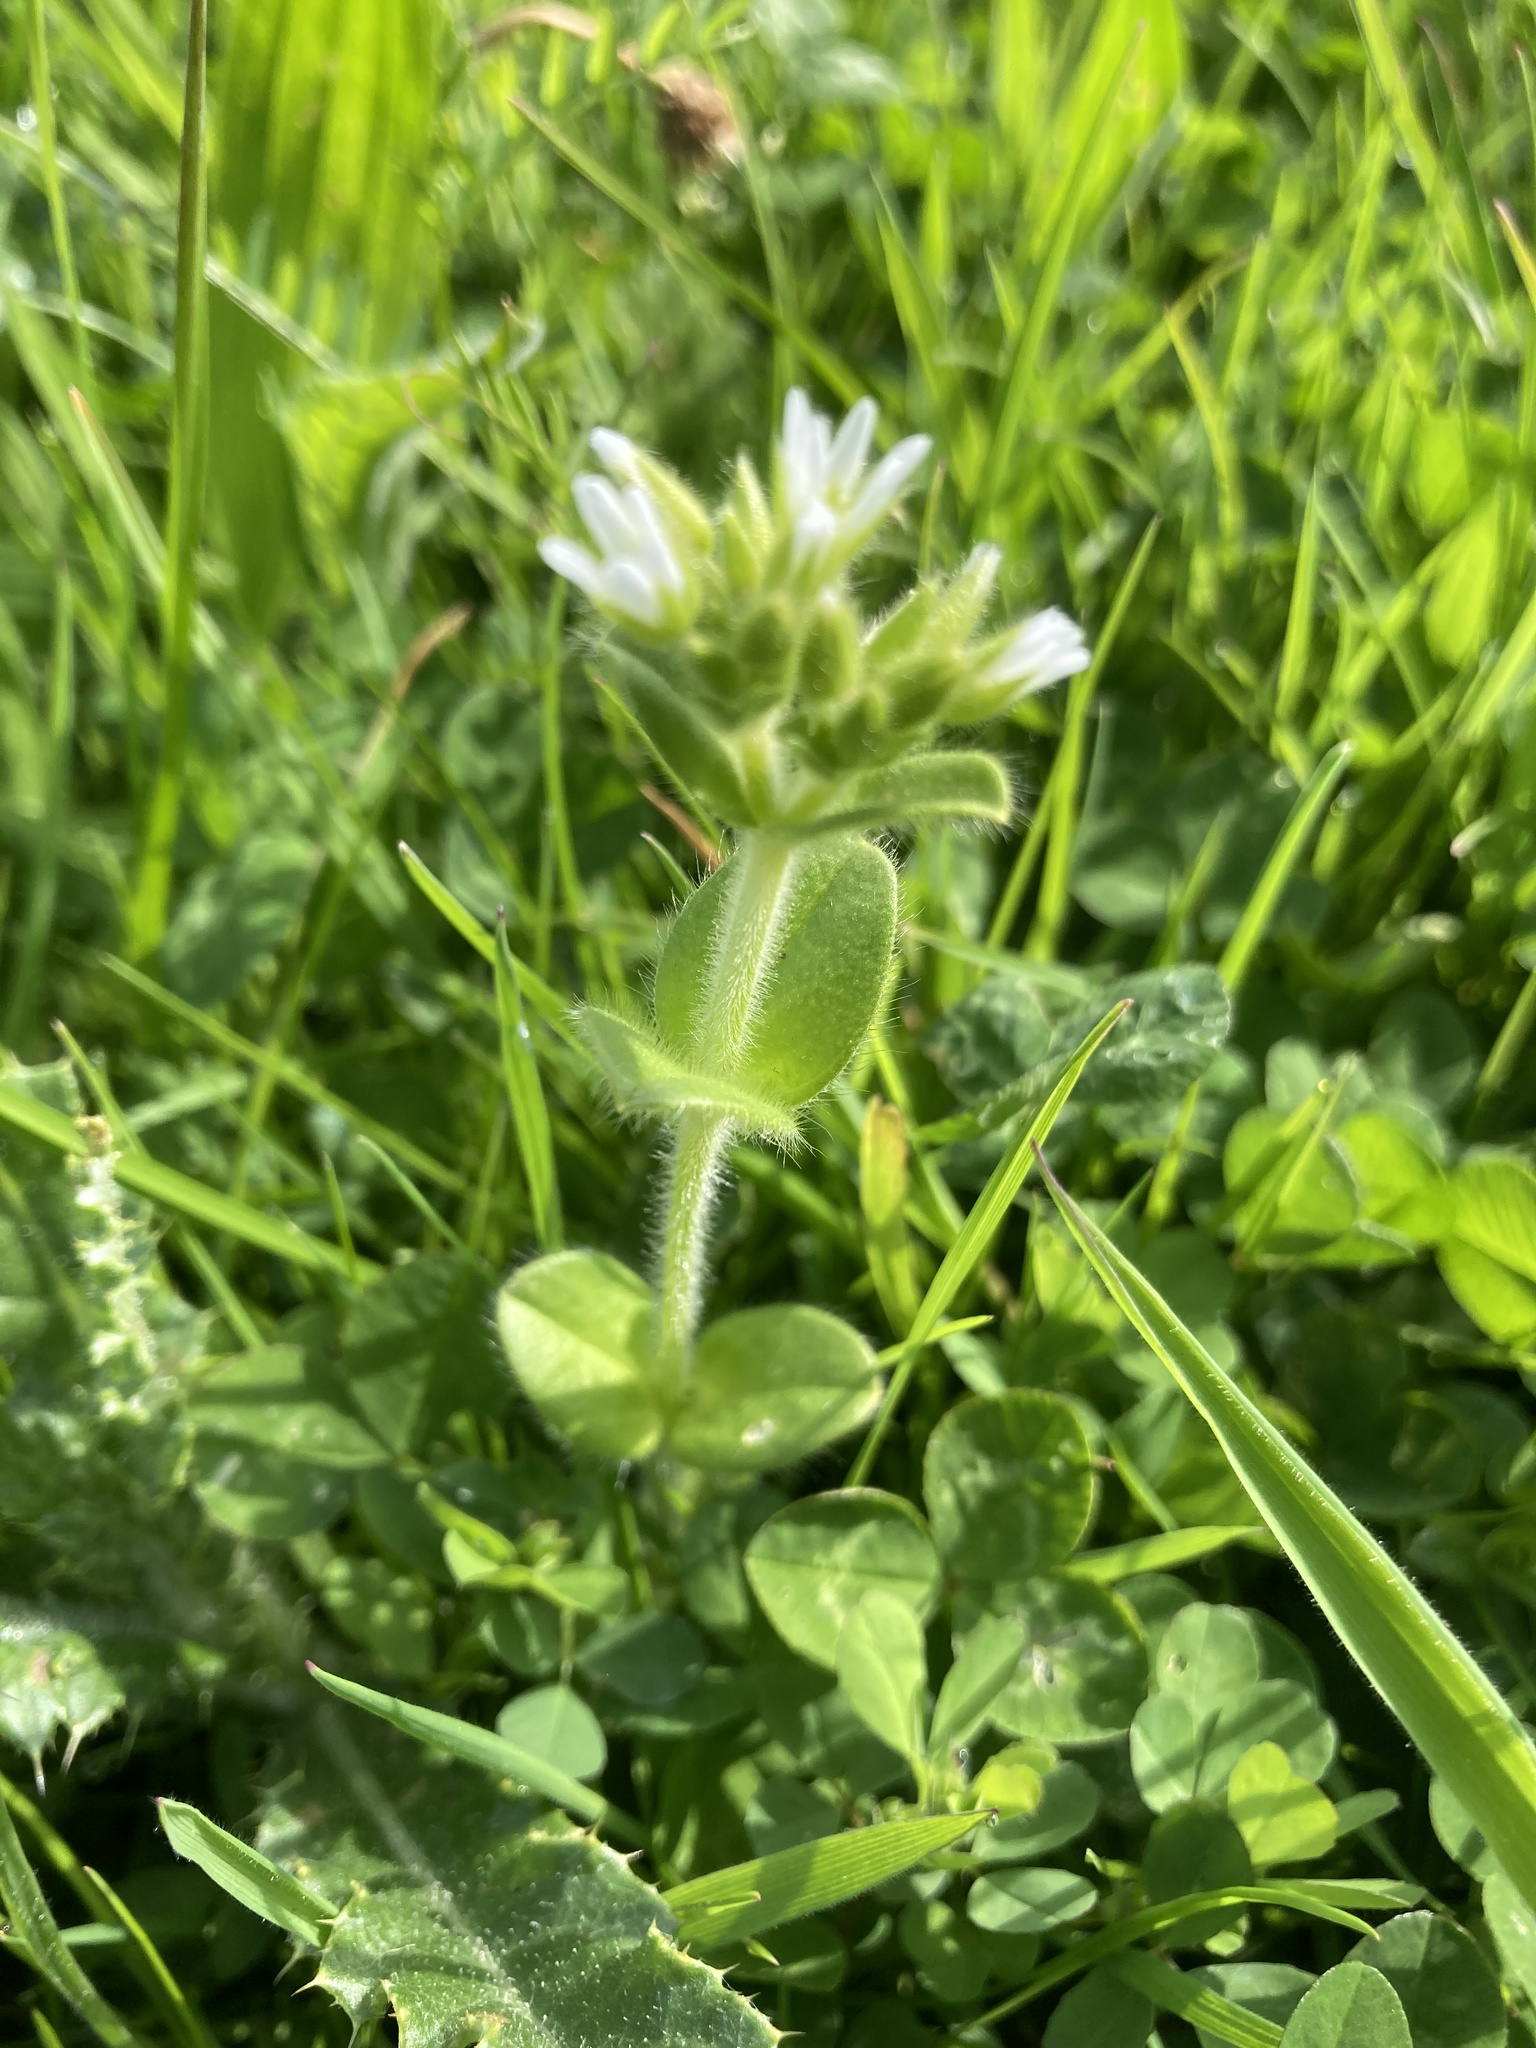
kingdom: Plantae
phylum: Tracheophyta
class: Magnoliopsida
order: Caryophyllales
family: Caryophyllaceae
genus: Cerastium
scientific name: Cerastium glomeratum
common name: Sticky chickweed
